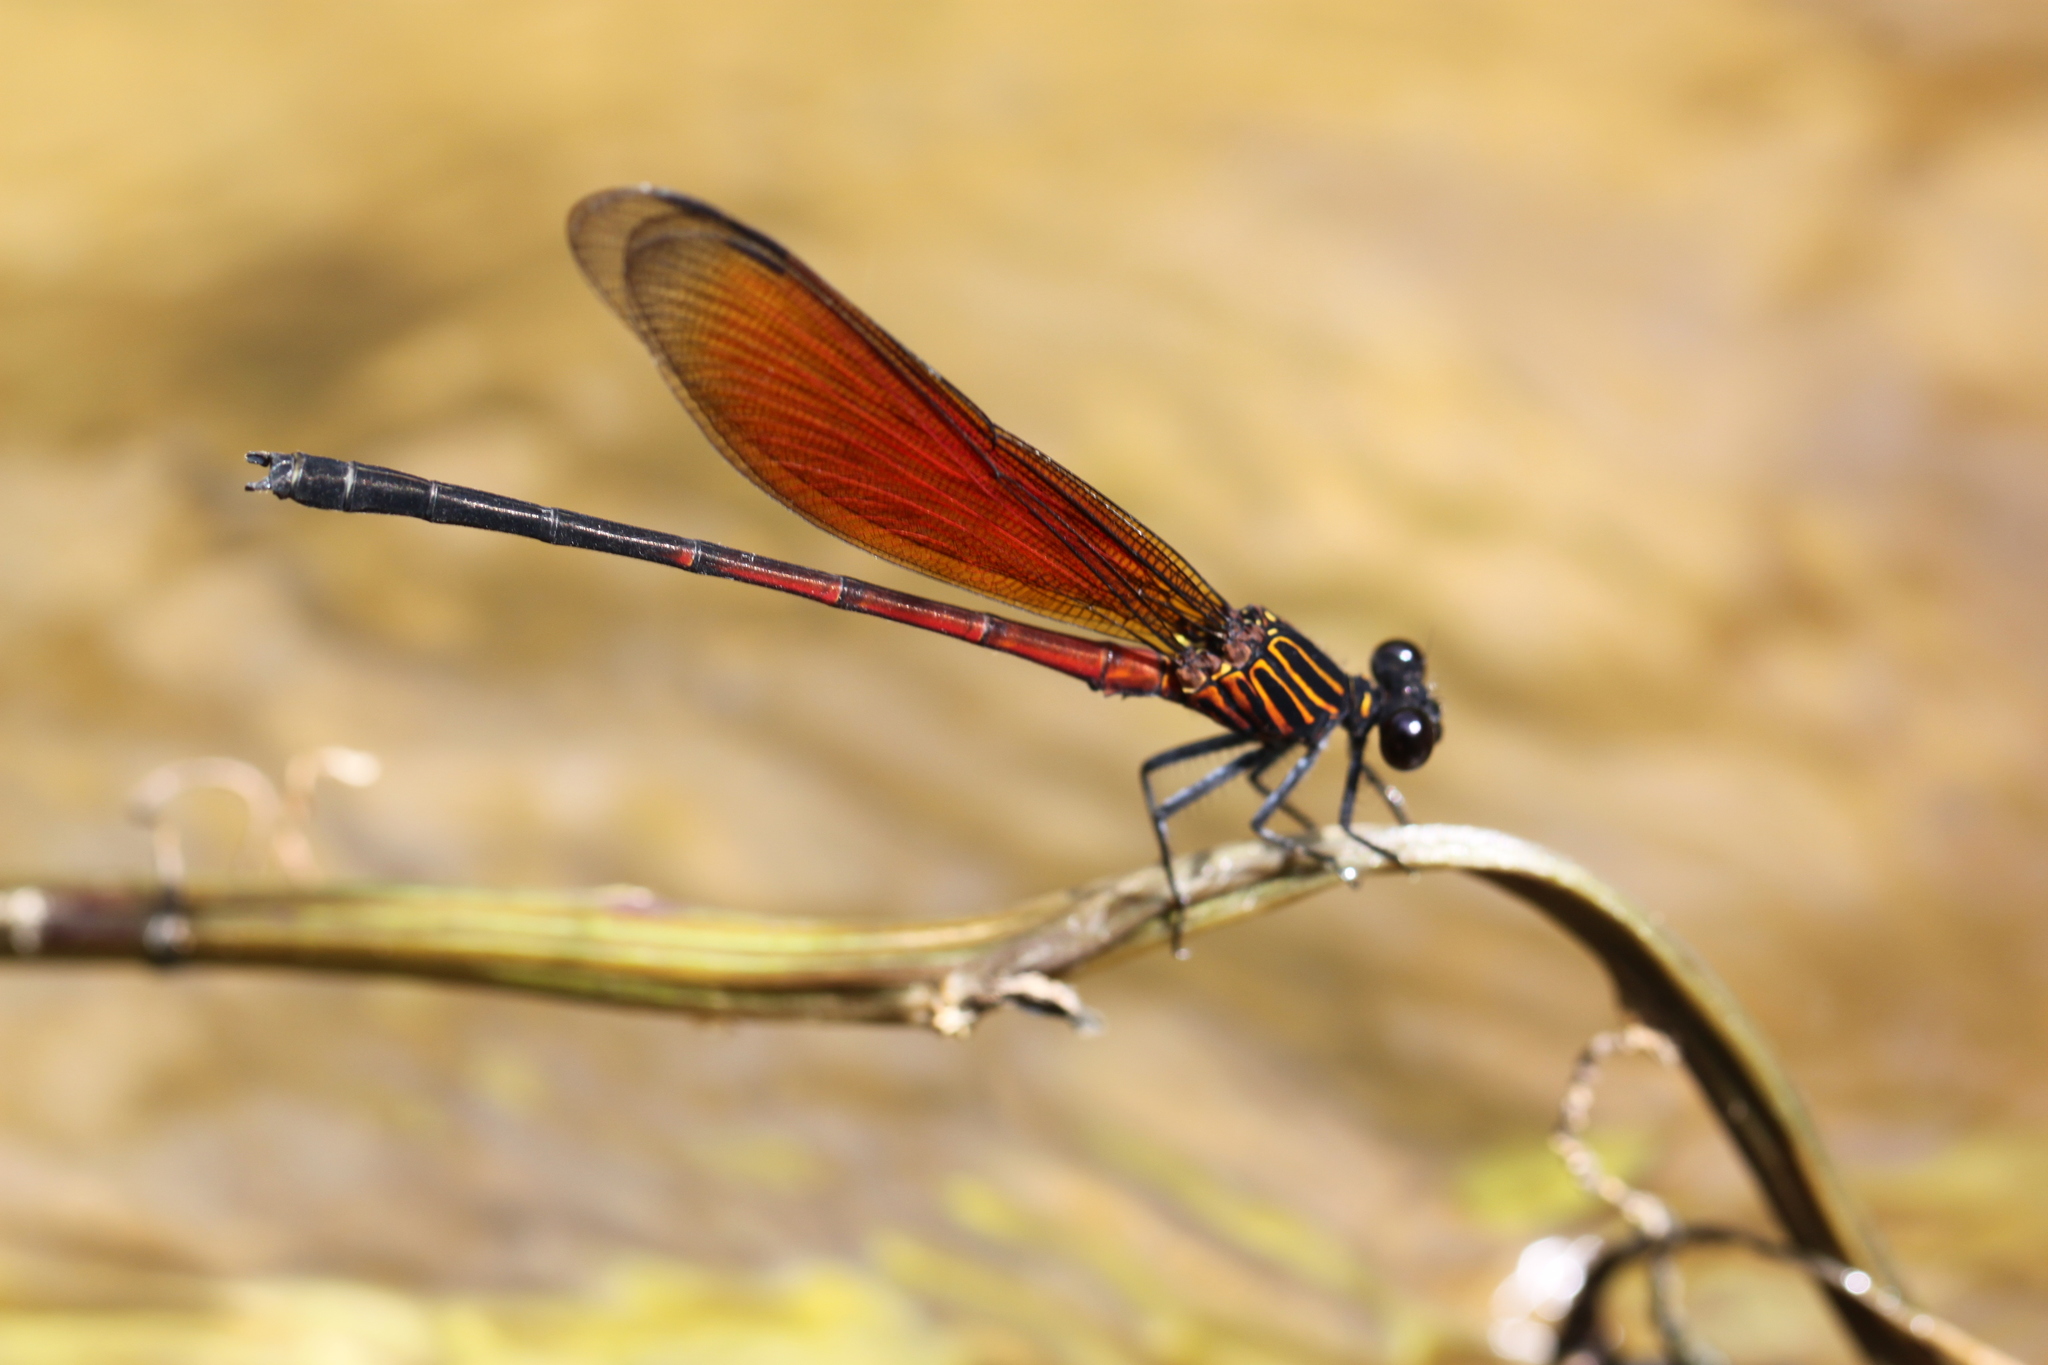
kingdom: Animalia
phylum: Arthropoda
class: Insecta
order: Odonata
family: Euphaeidae
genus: Euphaea
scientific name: Euphaea ochracea
